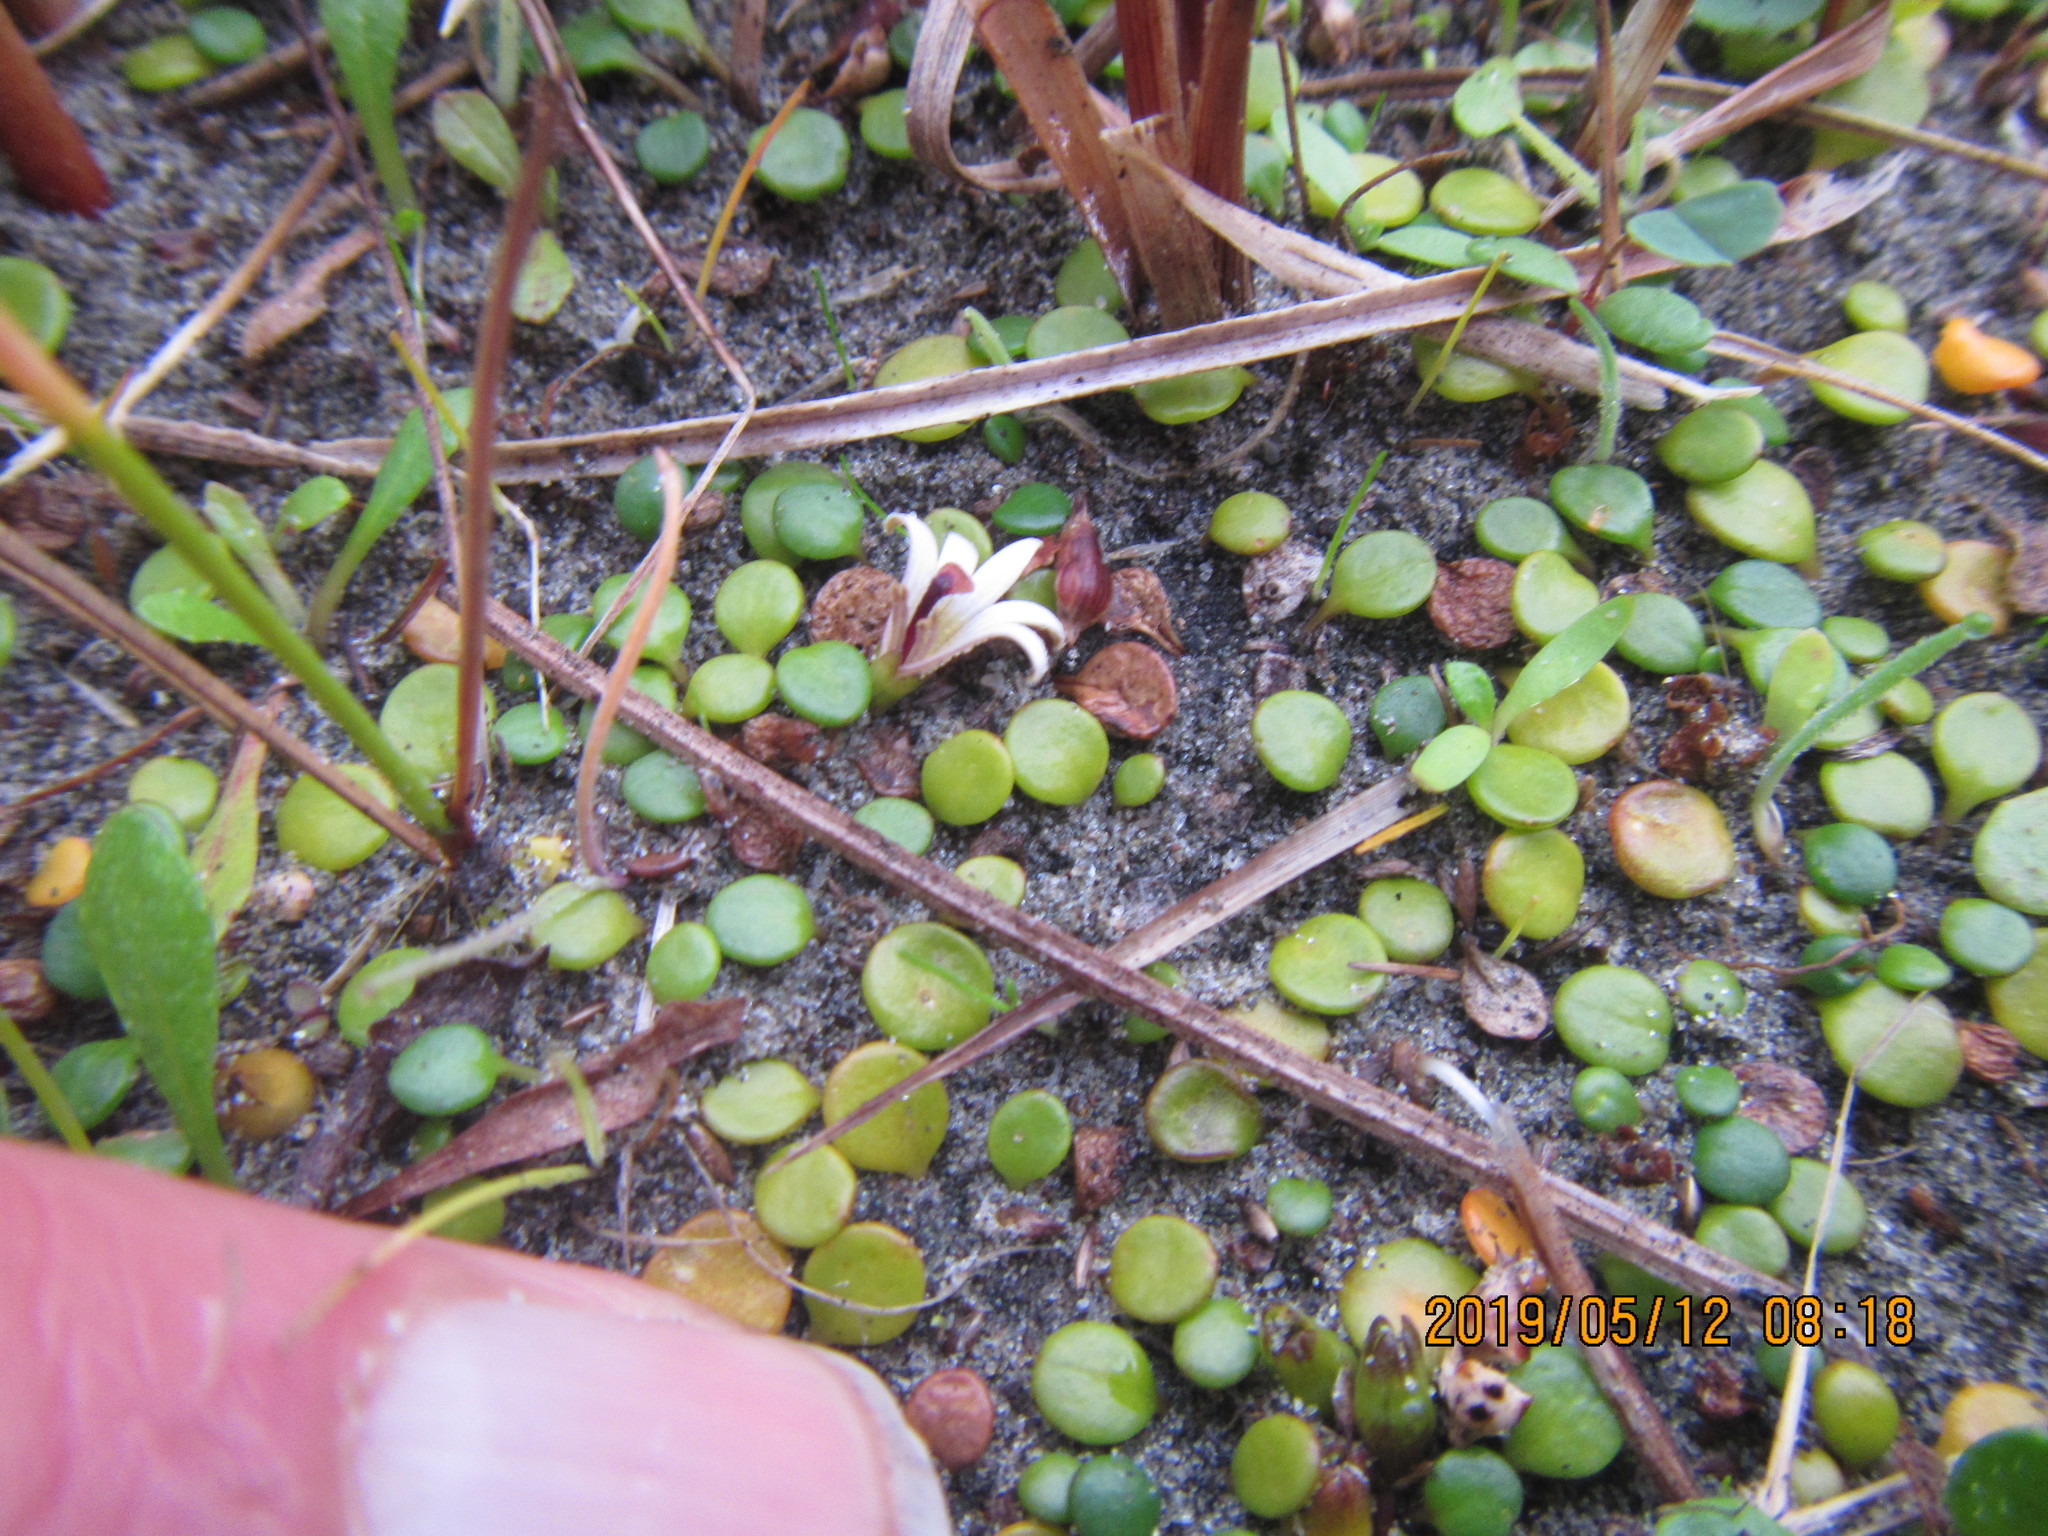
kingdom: Plantae
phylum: Tracheophyta
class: Magnoliopsida
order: Asterales
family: Goodeniaceae
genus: Goodenia
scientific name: Goodenia heenanii
